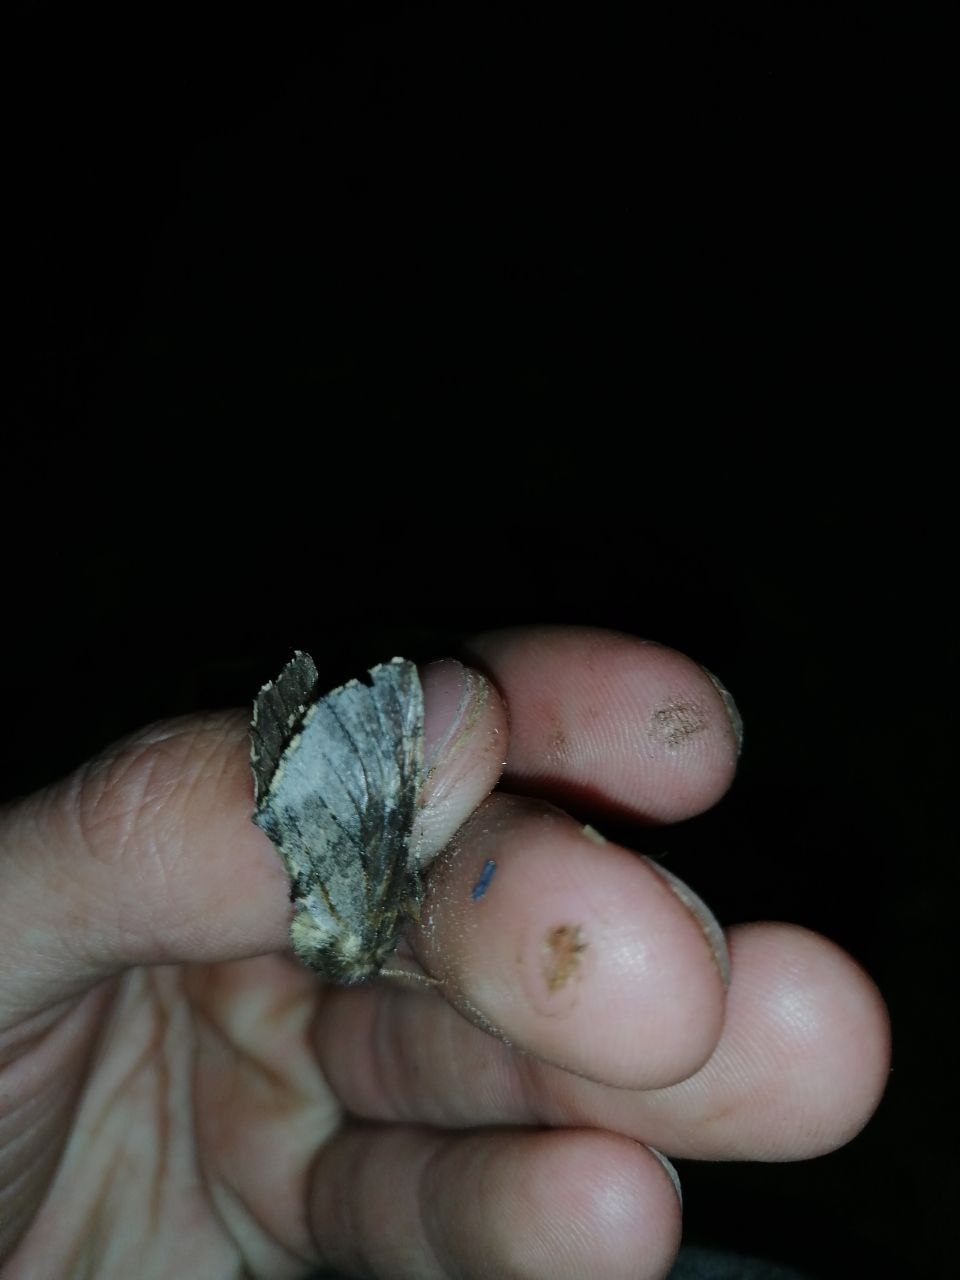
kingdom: Animalia
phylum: Arthropoda
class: Insecta
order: Lepidoptera
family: Notodontidae
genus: Odontosia
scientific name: Odontosia sieversii
